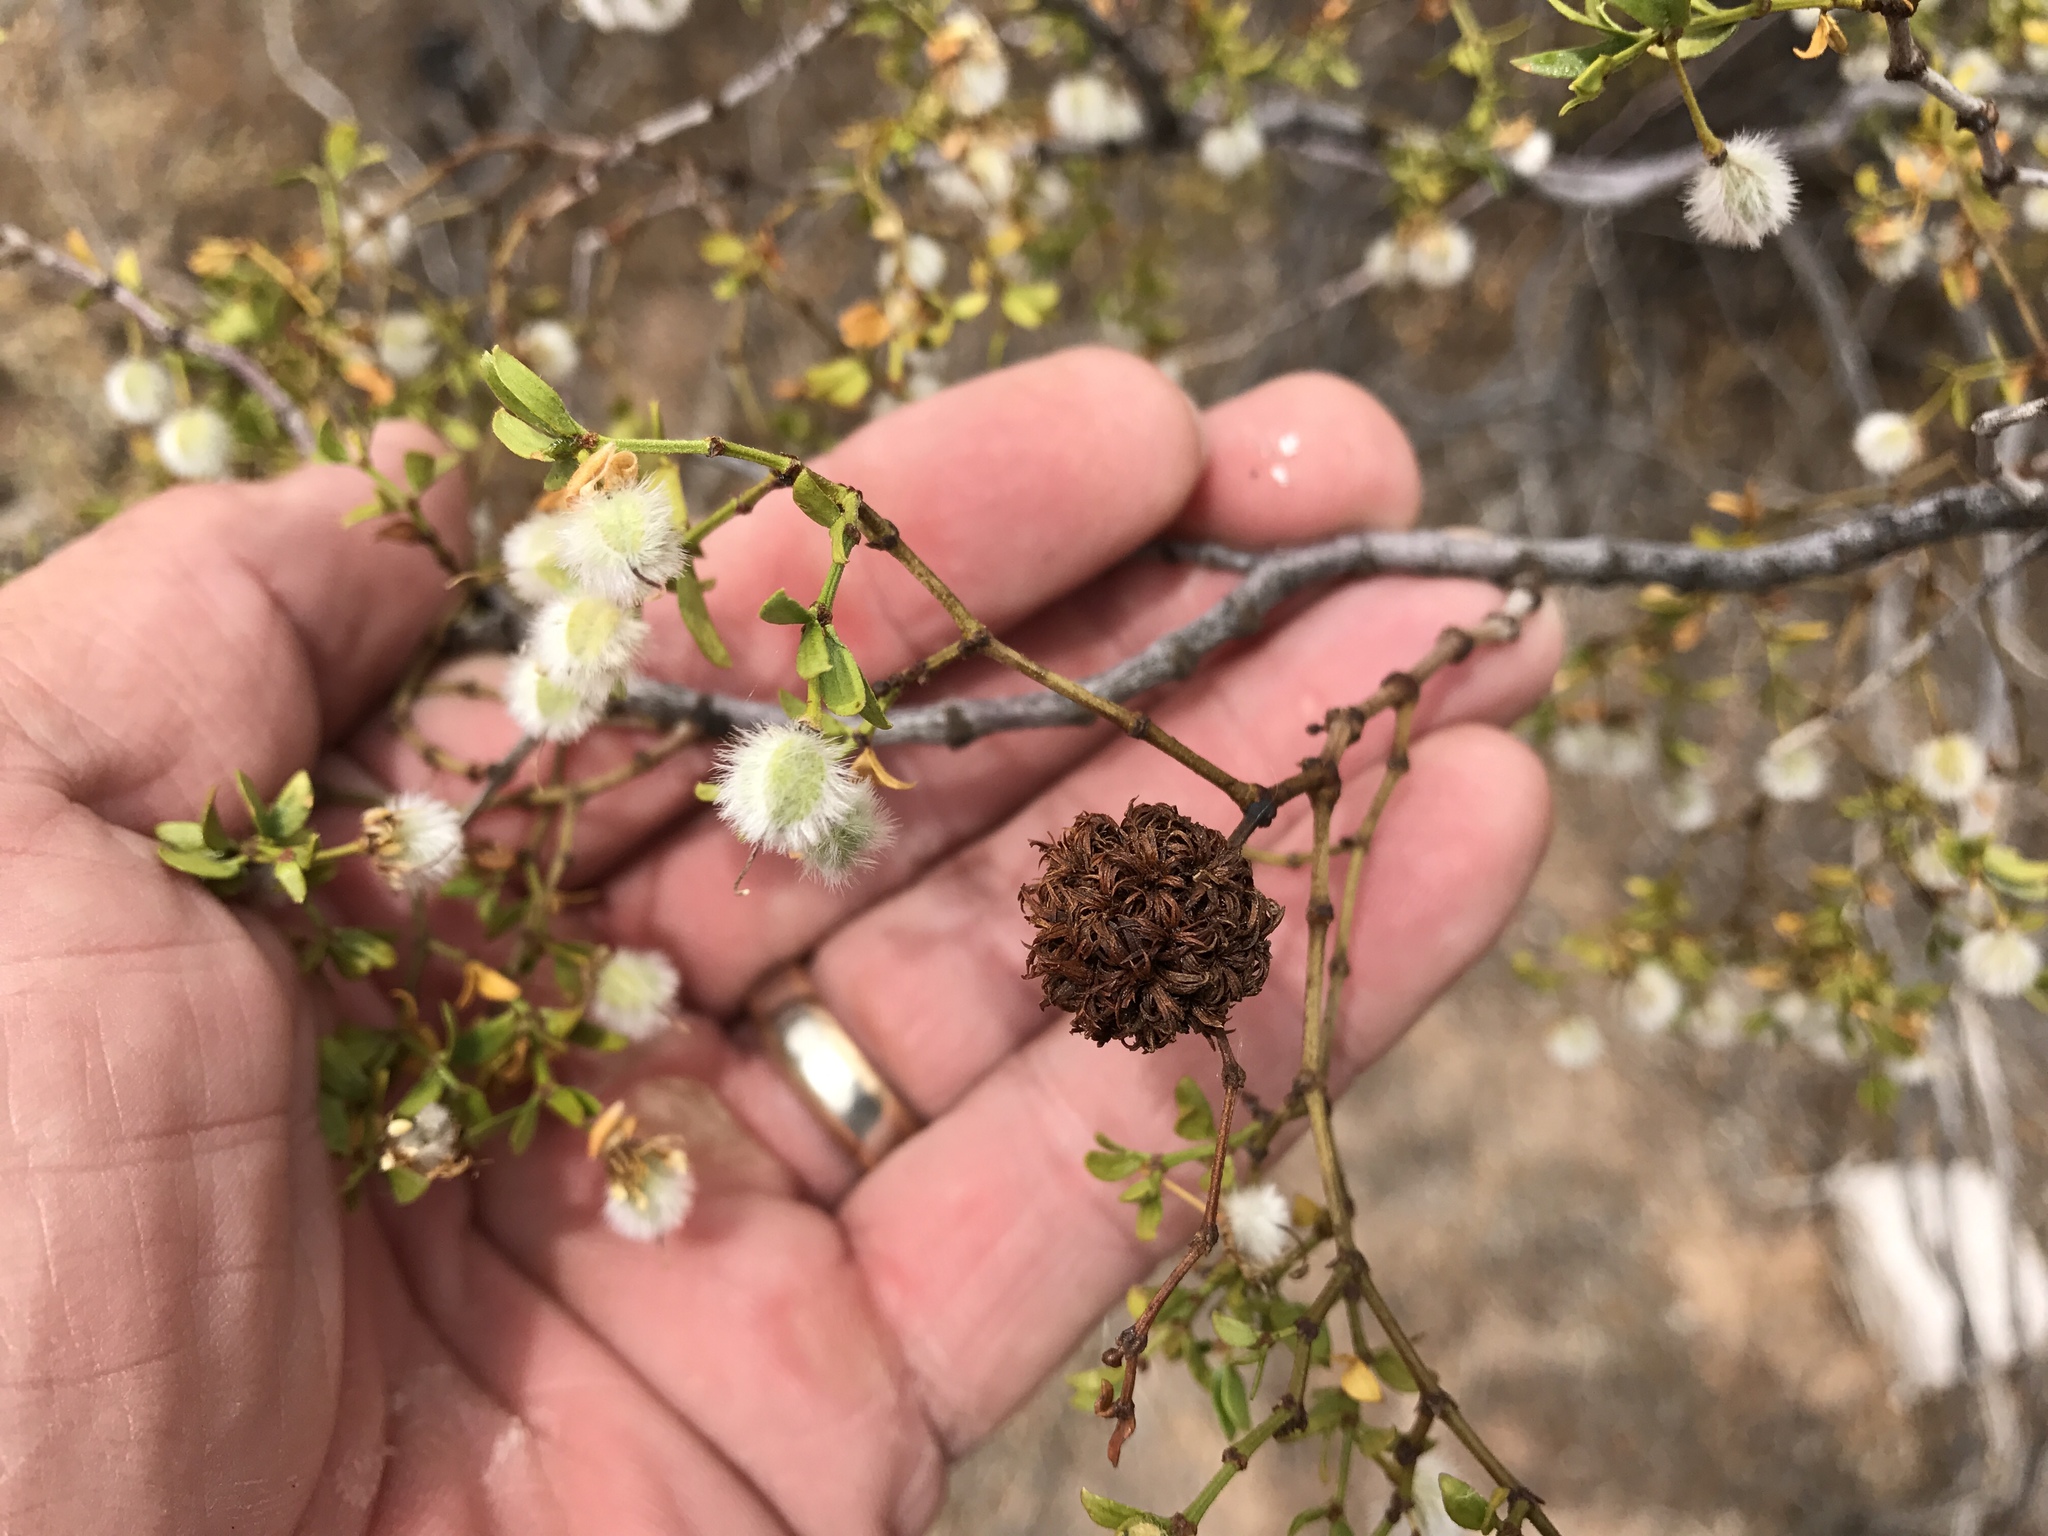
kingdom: Animalia
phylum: Arthropoda
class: Insecta
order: Diptera
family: Cecidomyiidae
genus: Asphondylia
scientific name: Asphondylia auripila
